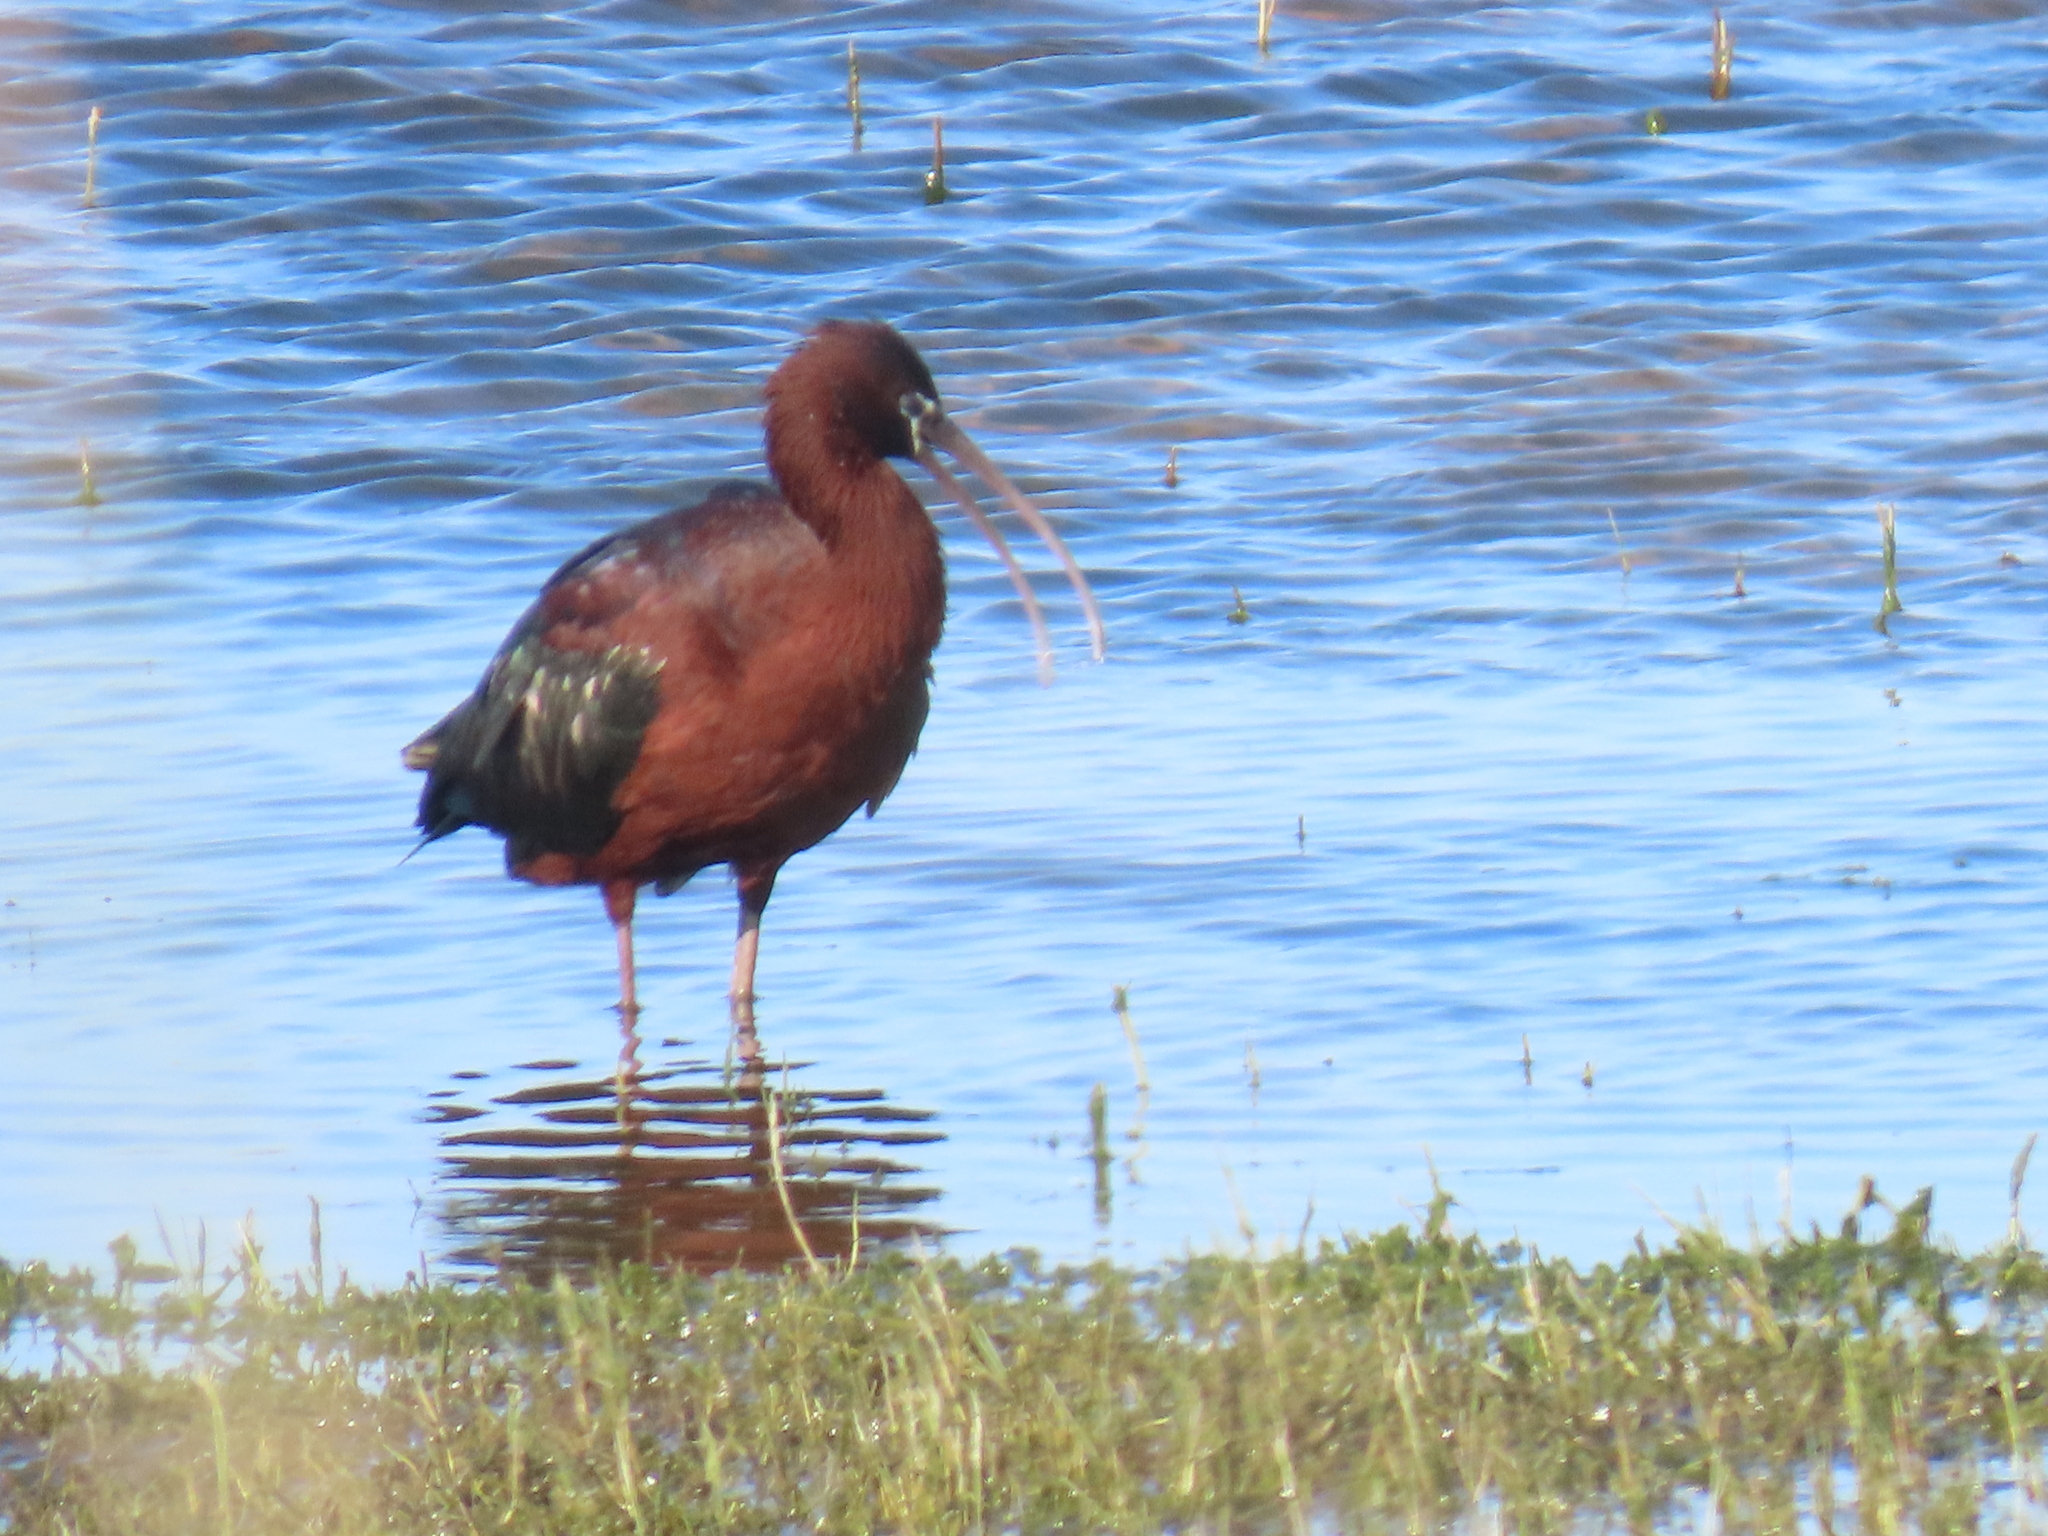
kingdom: Animalia
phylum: Chordata
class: Aves
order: Pelecaniformes
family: Threskiornithidae
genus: Plegadis
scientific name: Plegadis falcinellus
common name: Glossy ibis
